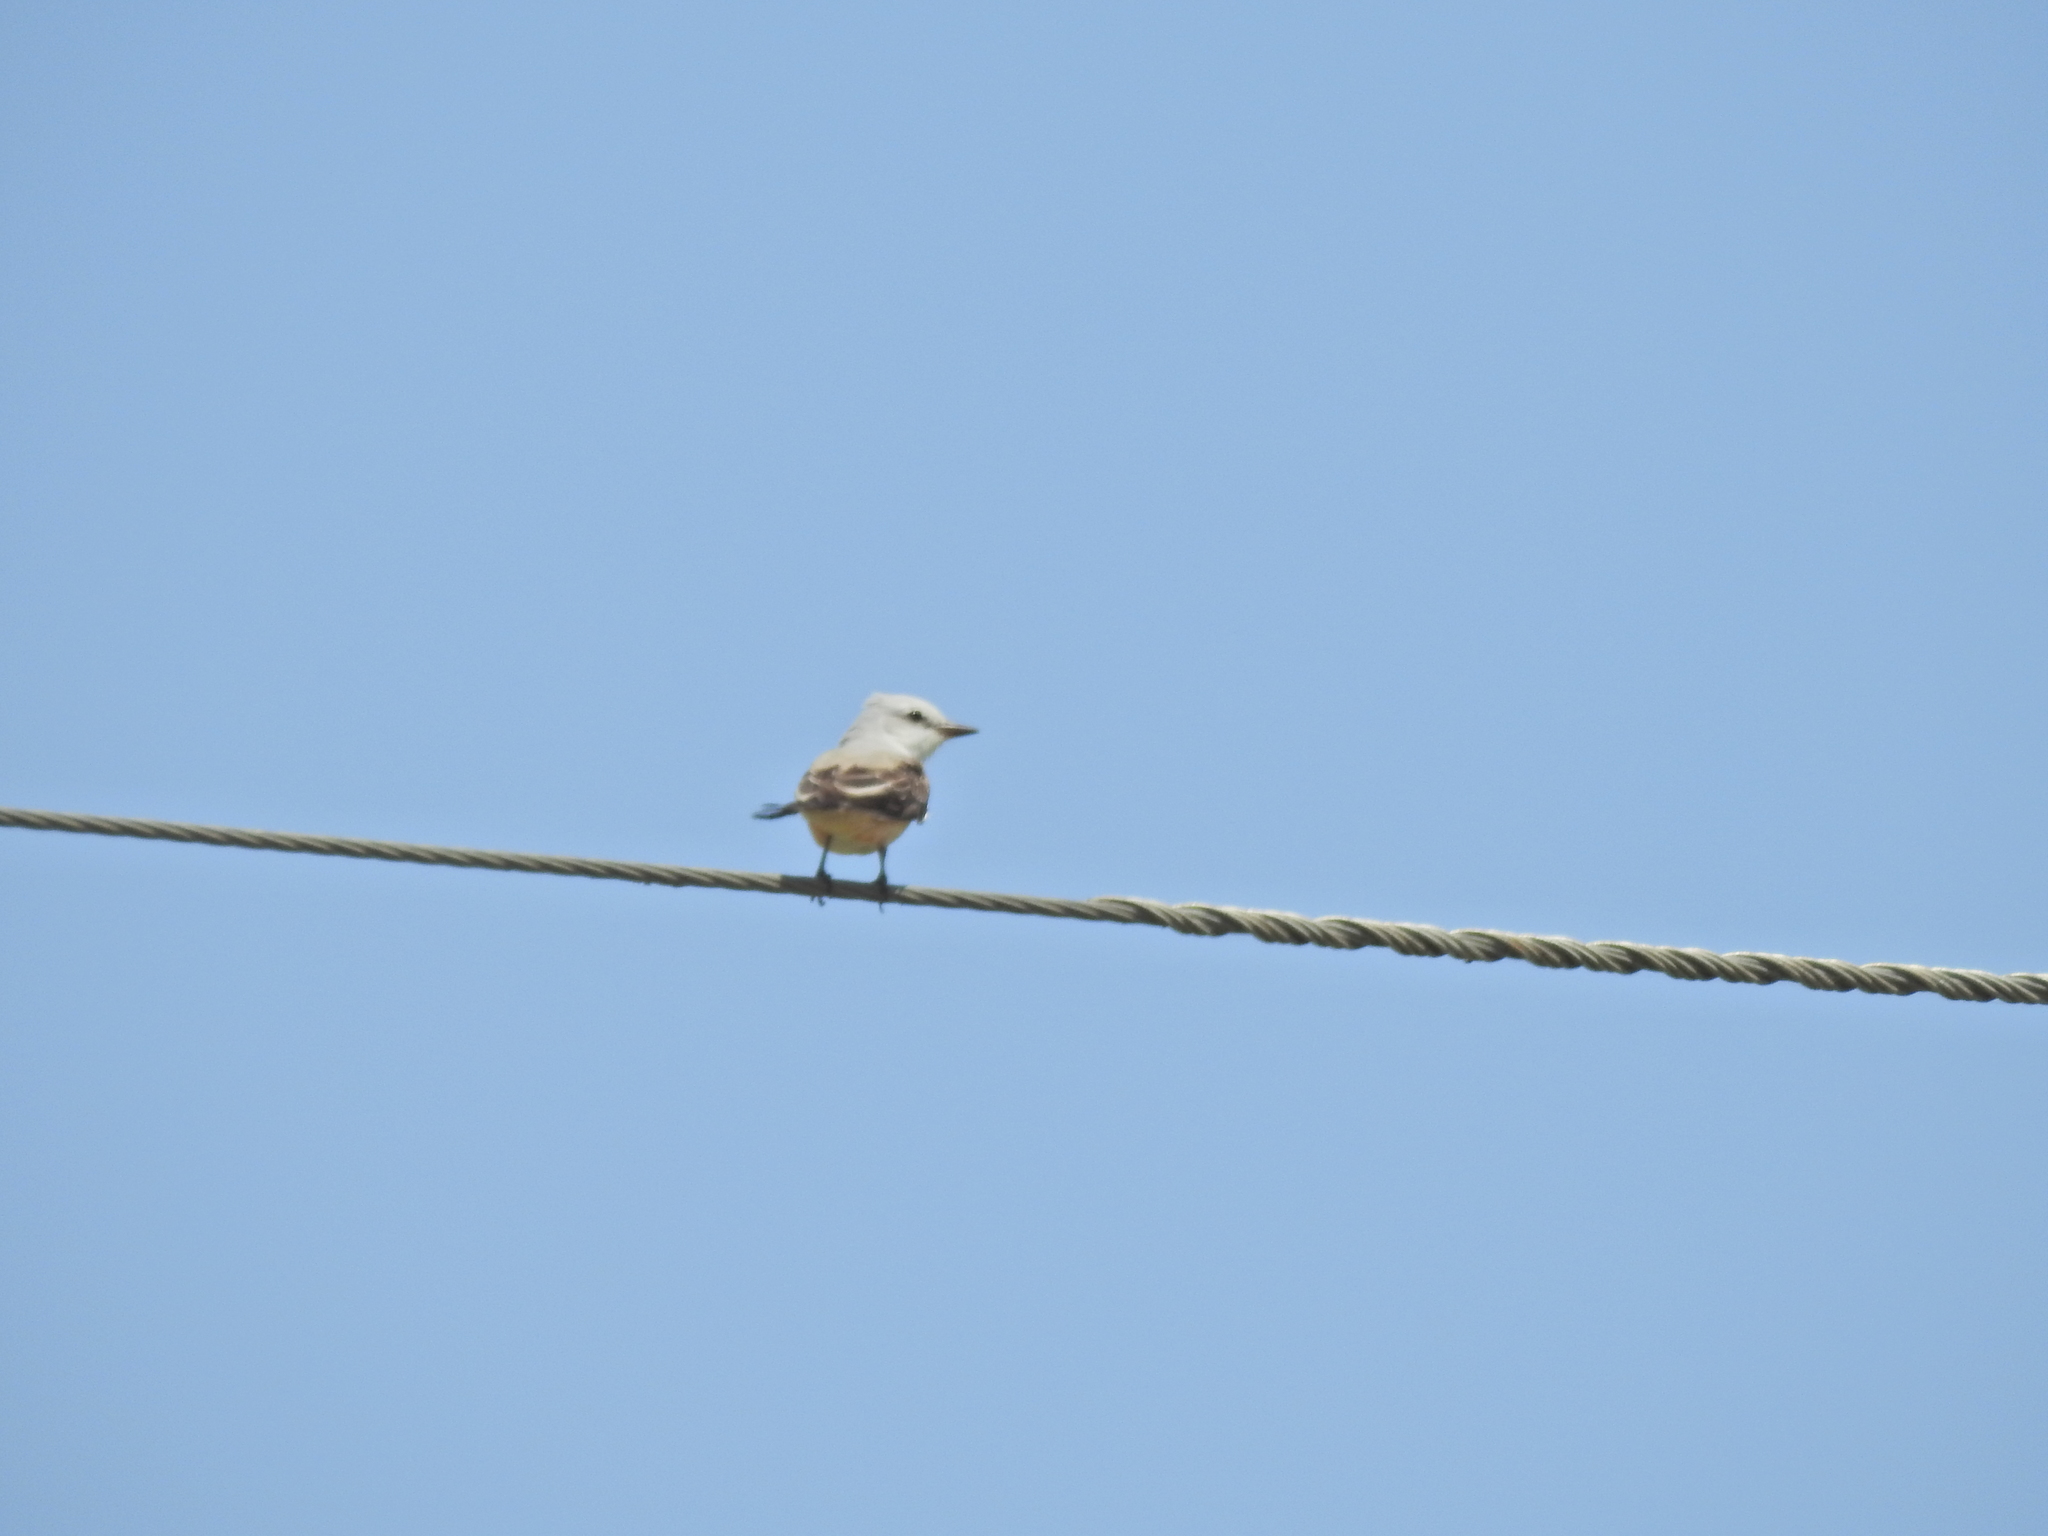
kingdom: Animalia
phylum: Chordata
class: Aves
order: Passeriformes
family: Tyrannidae
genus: Tyrannus
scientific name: Tyrannus forficatus
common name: Scissor-tailed flycatcher
